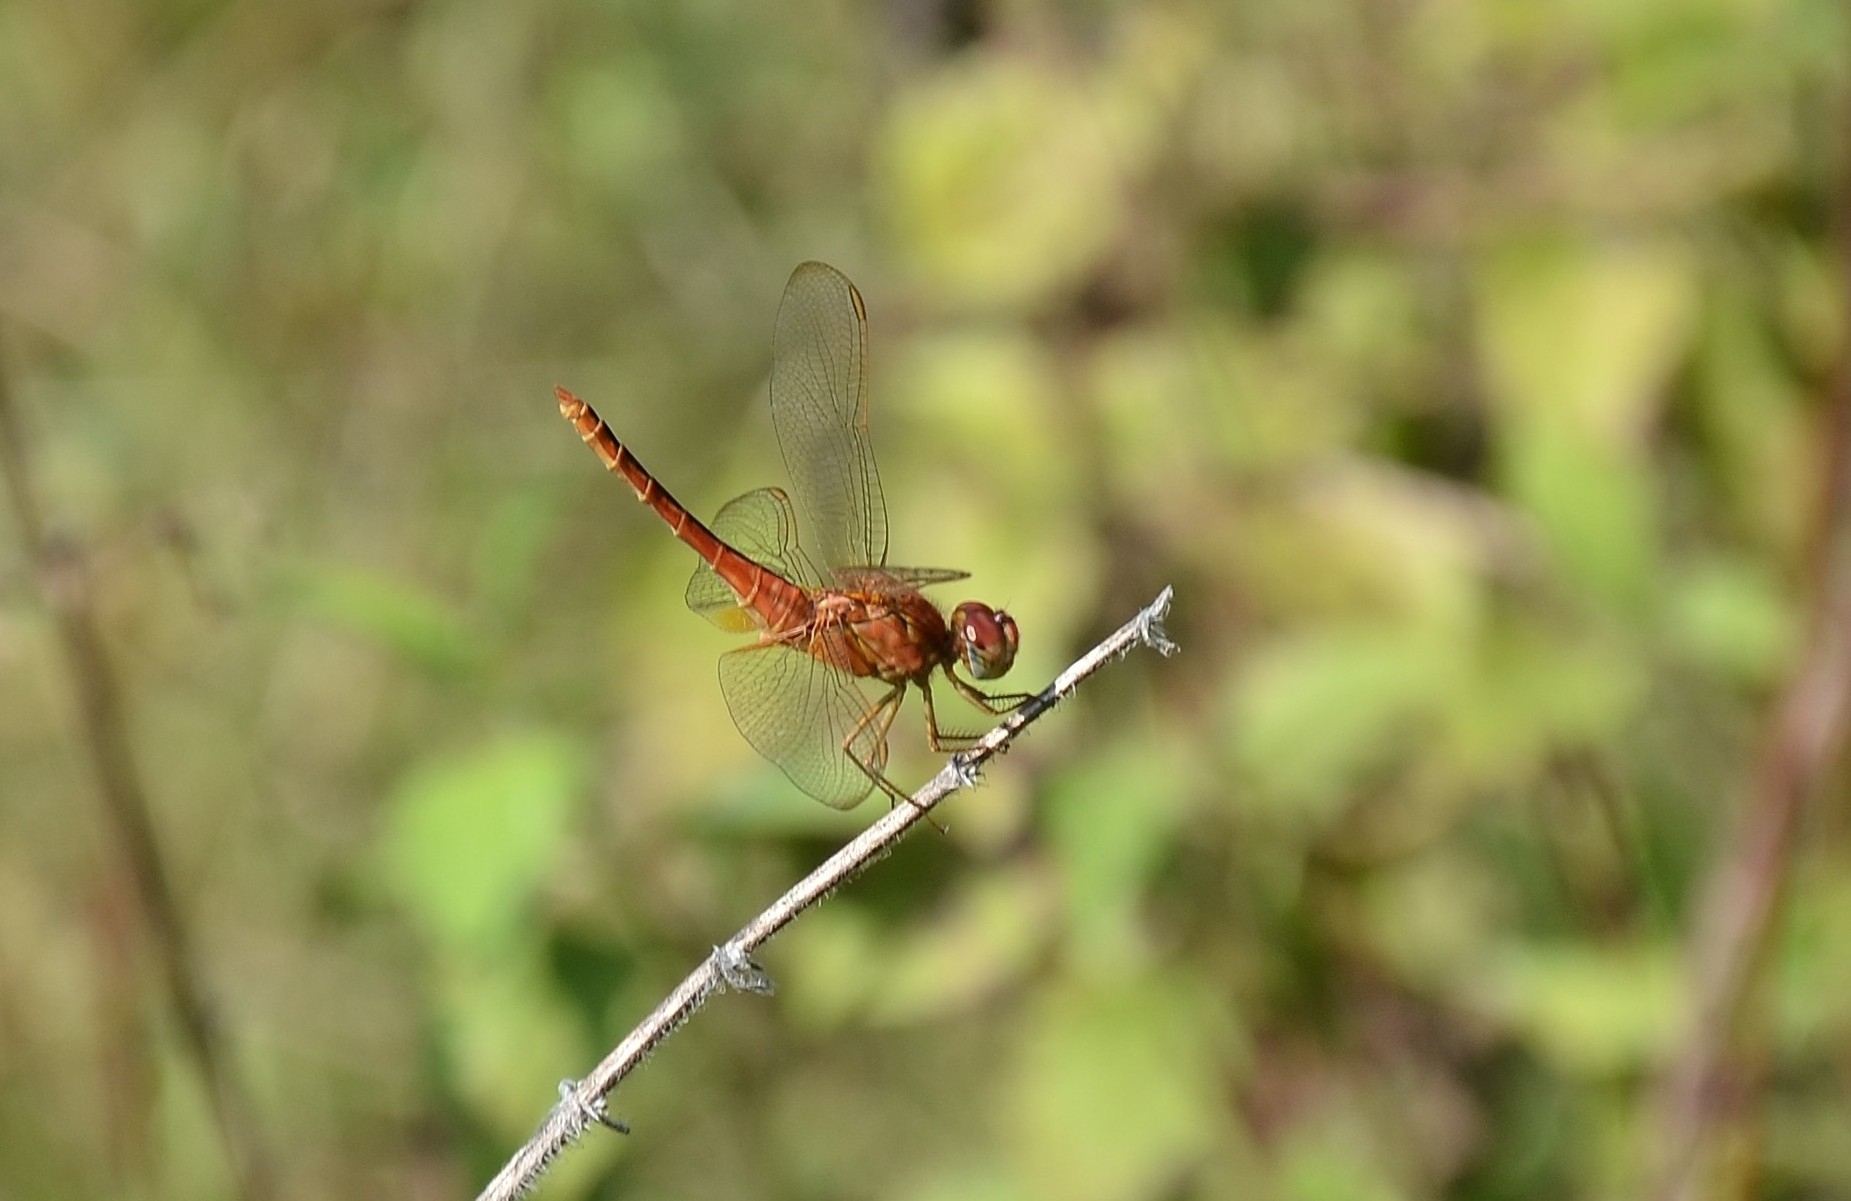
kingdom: Animalia
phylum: Arthropoda
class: Insecta
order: Odonata
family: Libellulidae
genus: Crocothemis
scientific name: Crocothemis servilia
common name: Scarlet skimmer
